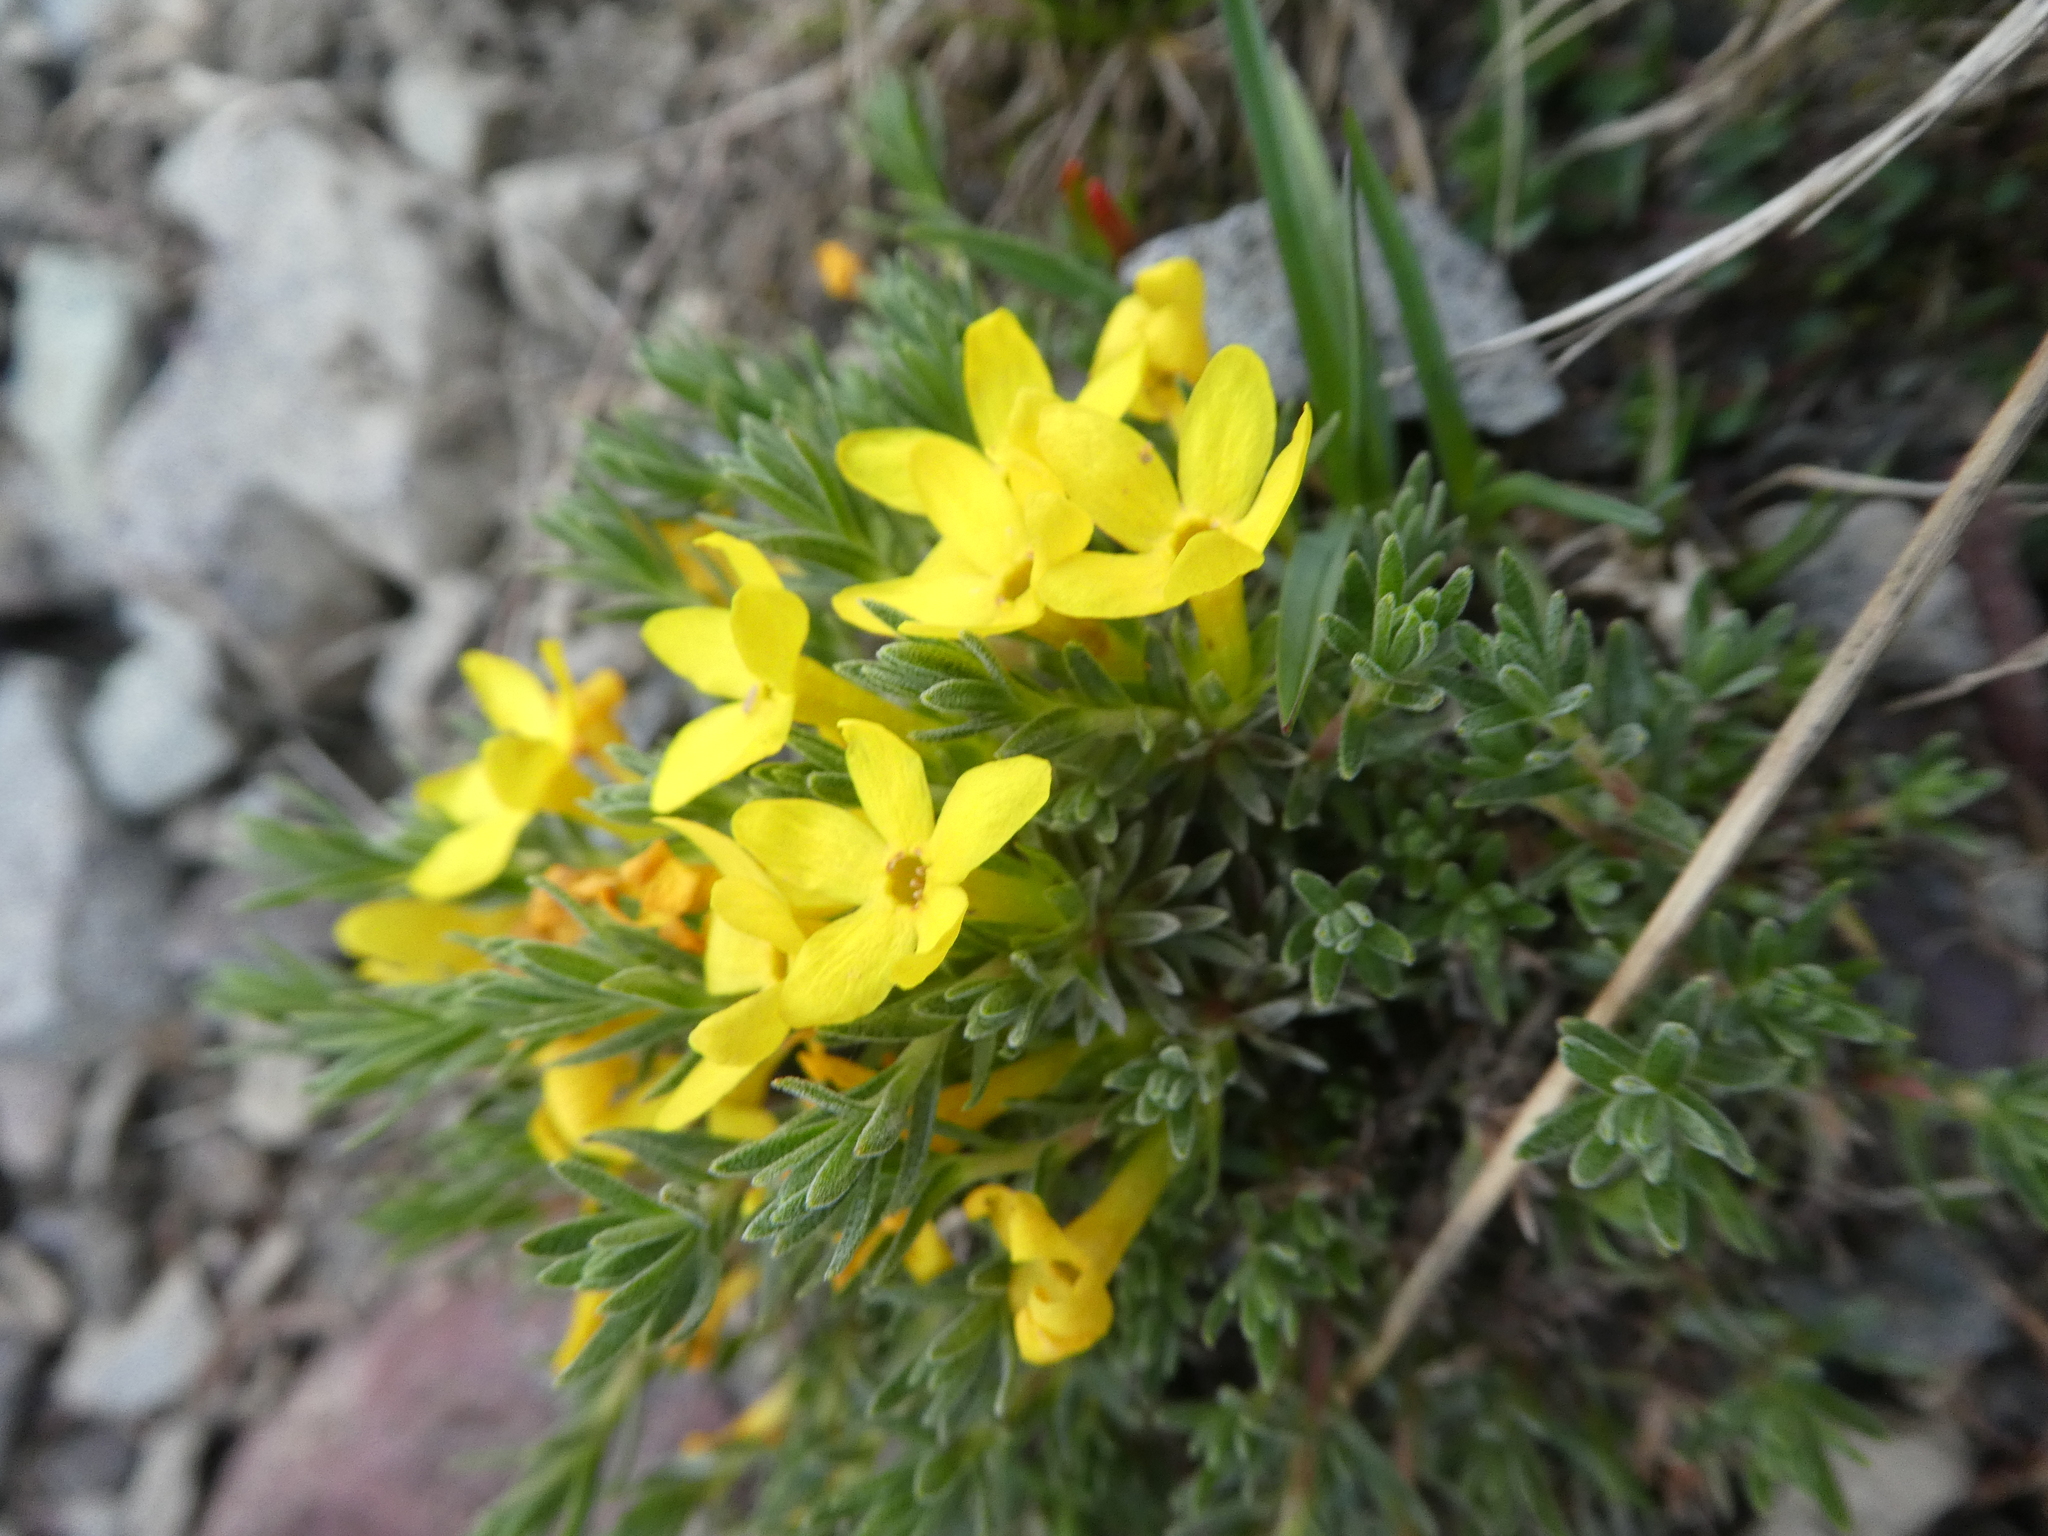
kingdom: Plantae
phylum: Tracheophyta
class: Magnoliopsida
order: Ericales
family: Primulaceae
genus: Androsace
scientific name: Androsace vitaliana
